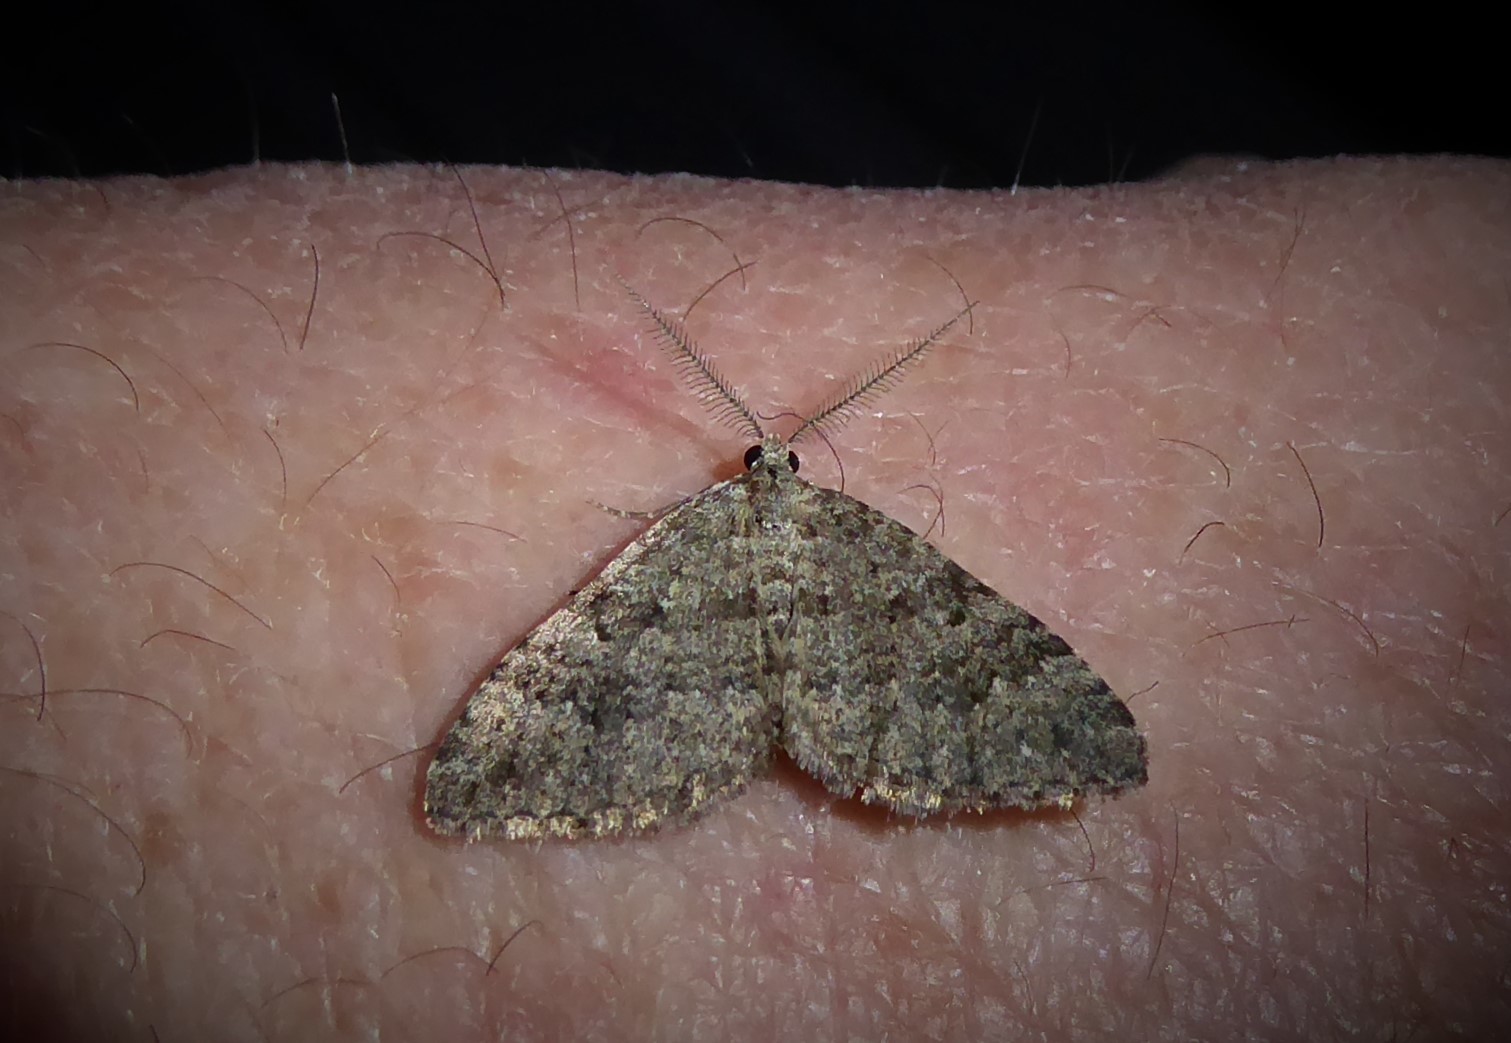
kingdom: Animalia
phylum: Arthropoda
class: Insecta
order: Lepidoptera
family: Geometridae
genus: Helastia
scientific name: Helastia corcularia
